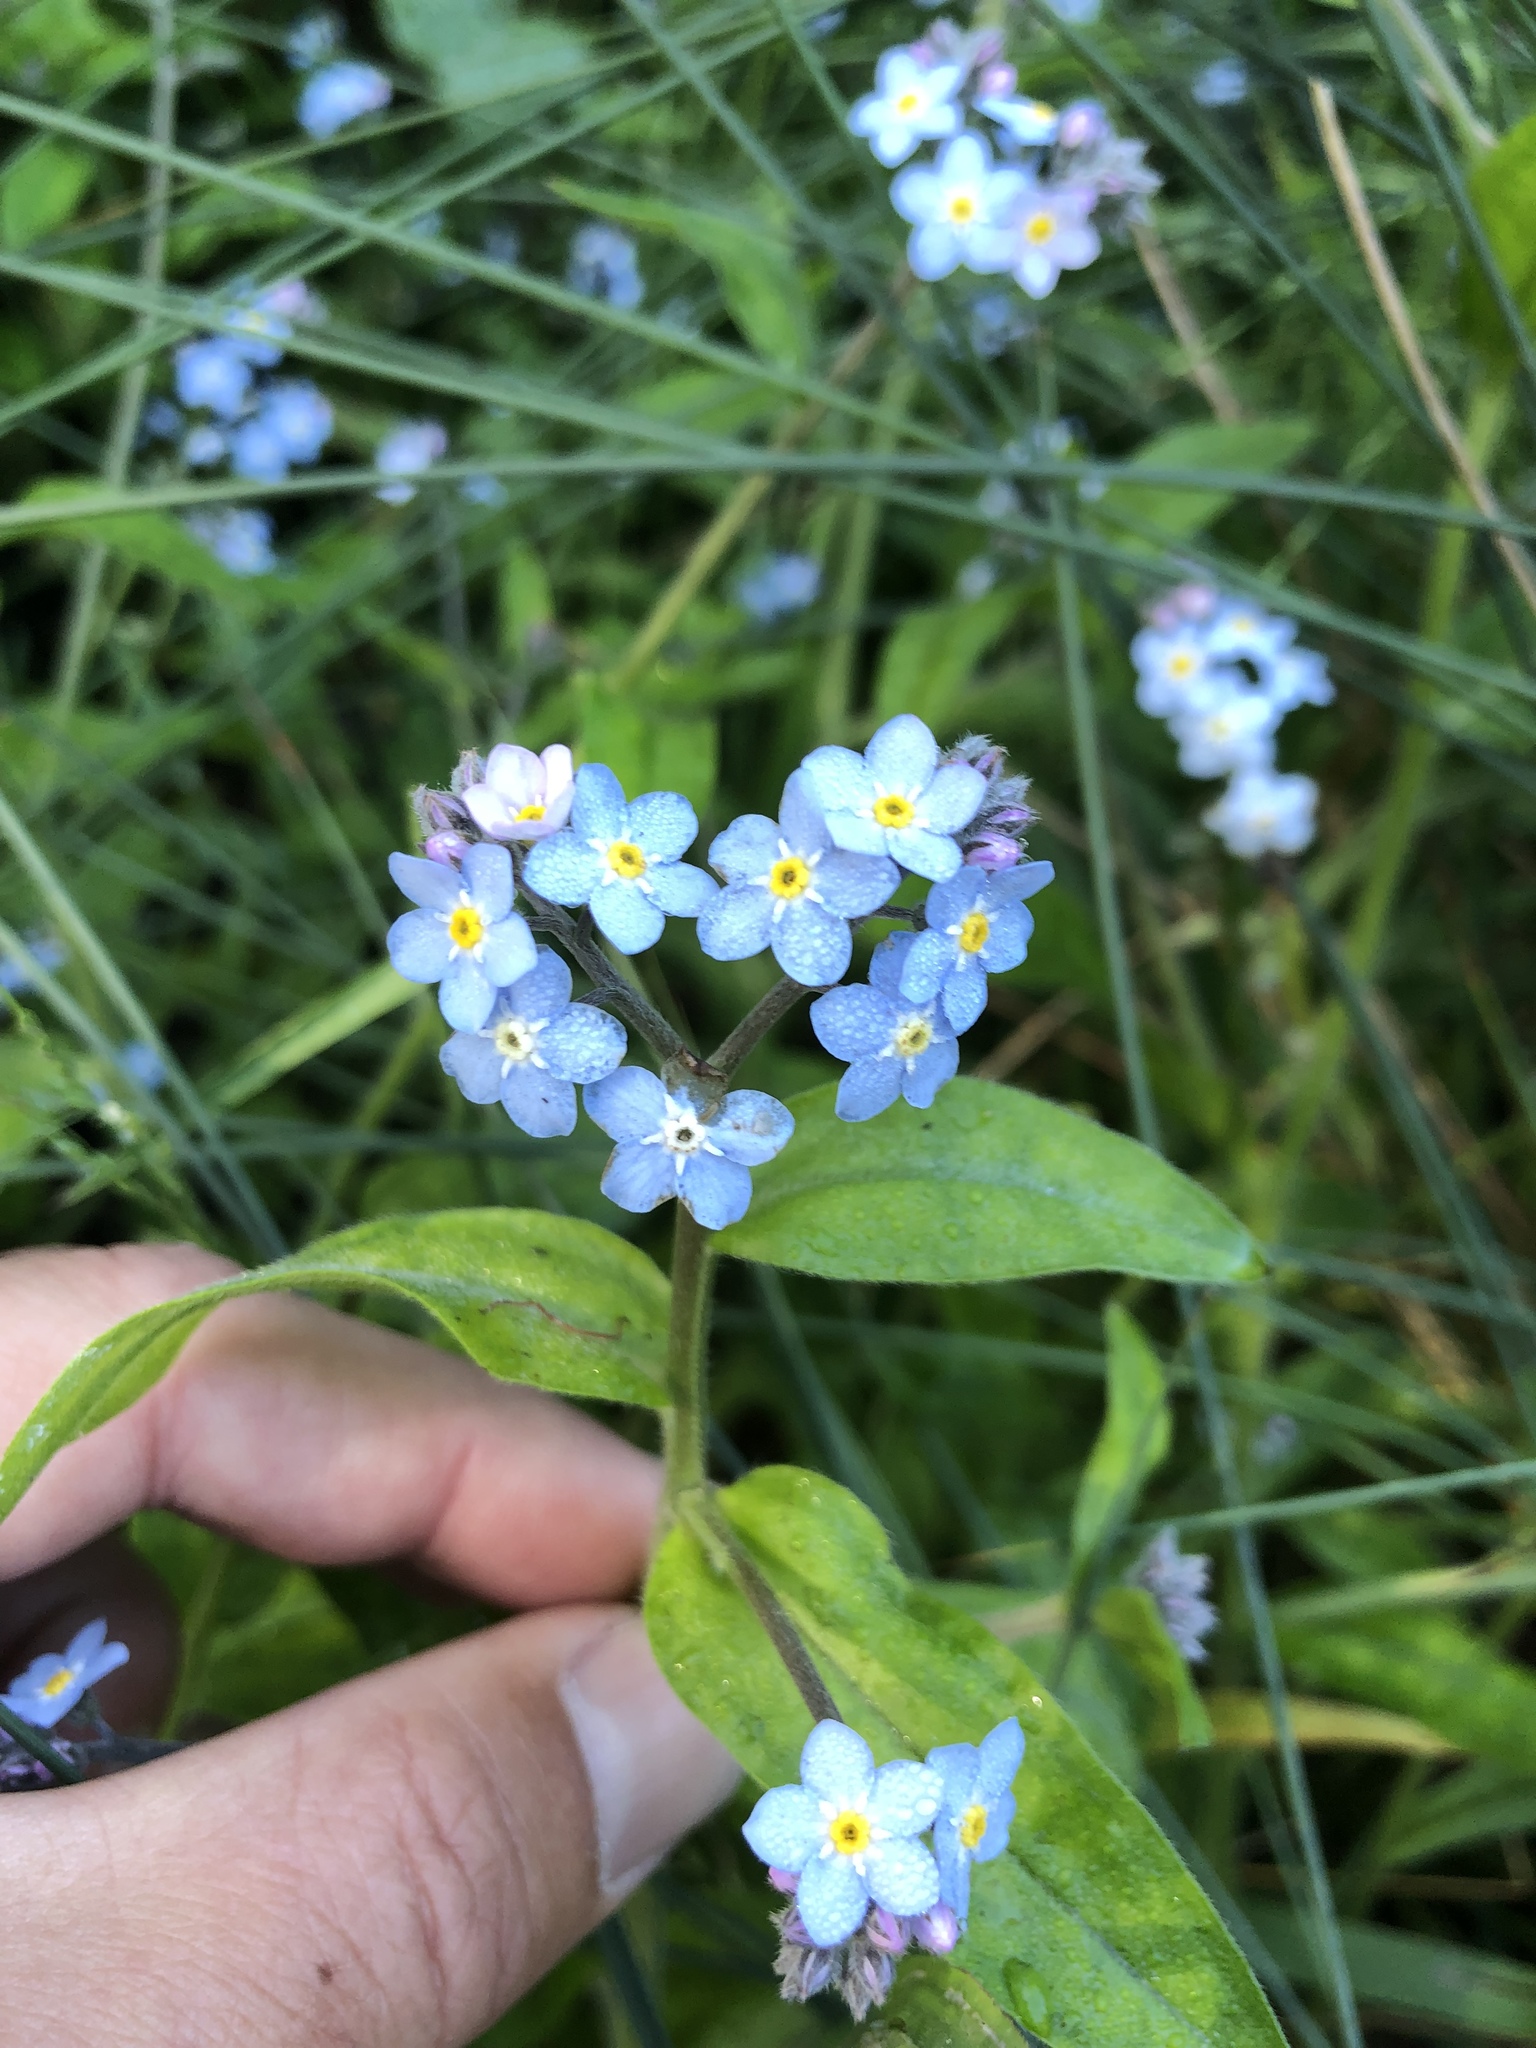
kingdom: Plantae
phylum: Tracheophyta
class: Magnoliopsida
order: Boraginales
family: Boraginaceae
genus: Myosotis
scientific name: Myosotis latifolia
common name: Broadleaf forget-me-not
